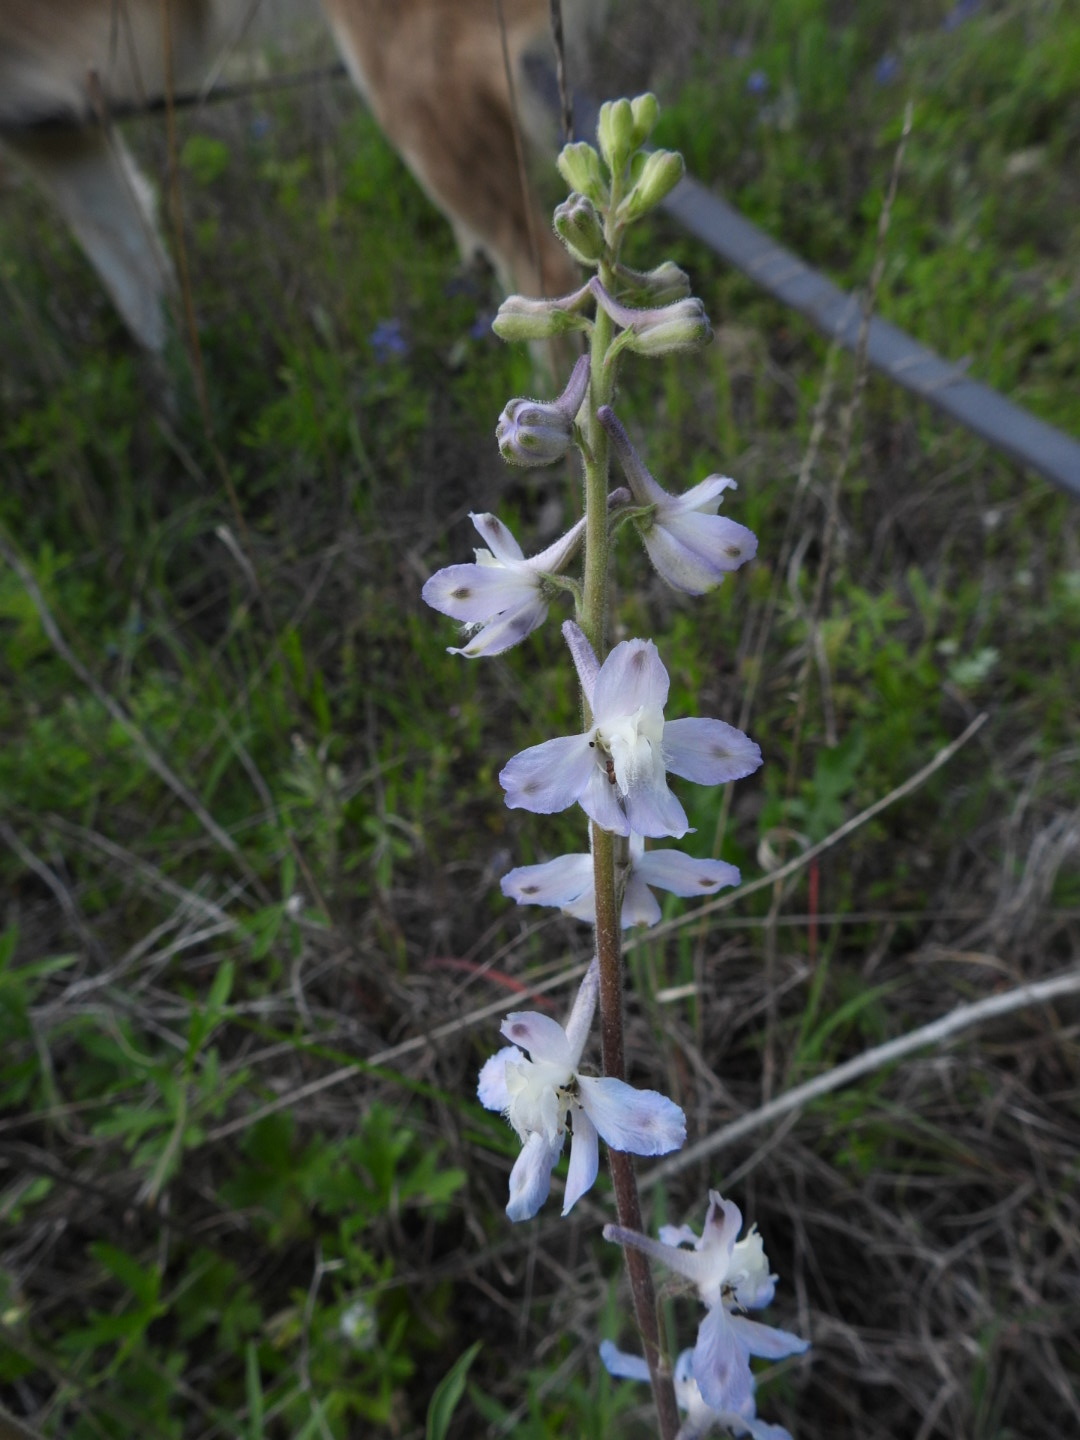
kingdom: Plantae
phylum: Tracheophyta
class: Magnoliopsida
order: Ranunculales
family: Ranunculaceae
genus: Delphinium
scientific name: Delphinium carolinianum
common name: Carolina larkspur
